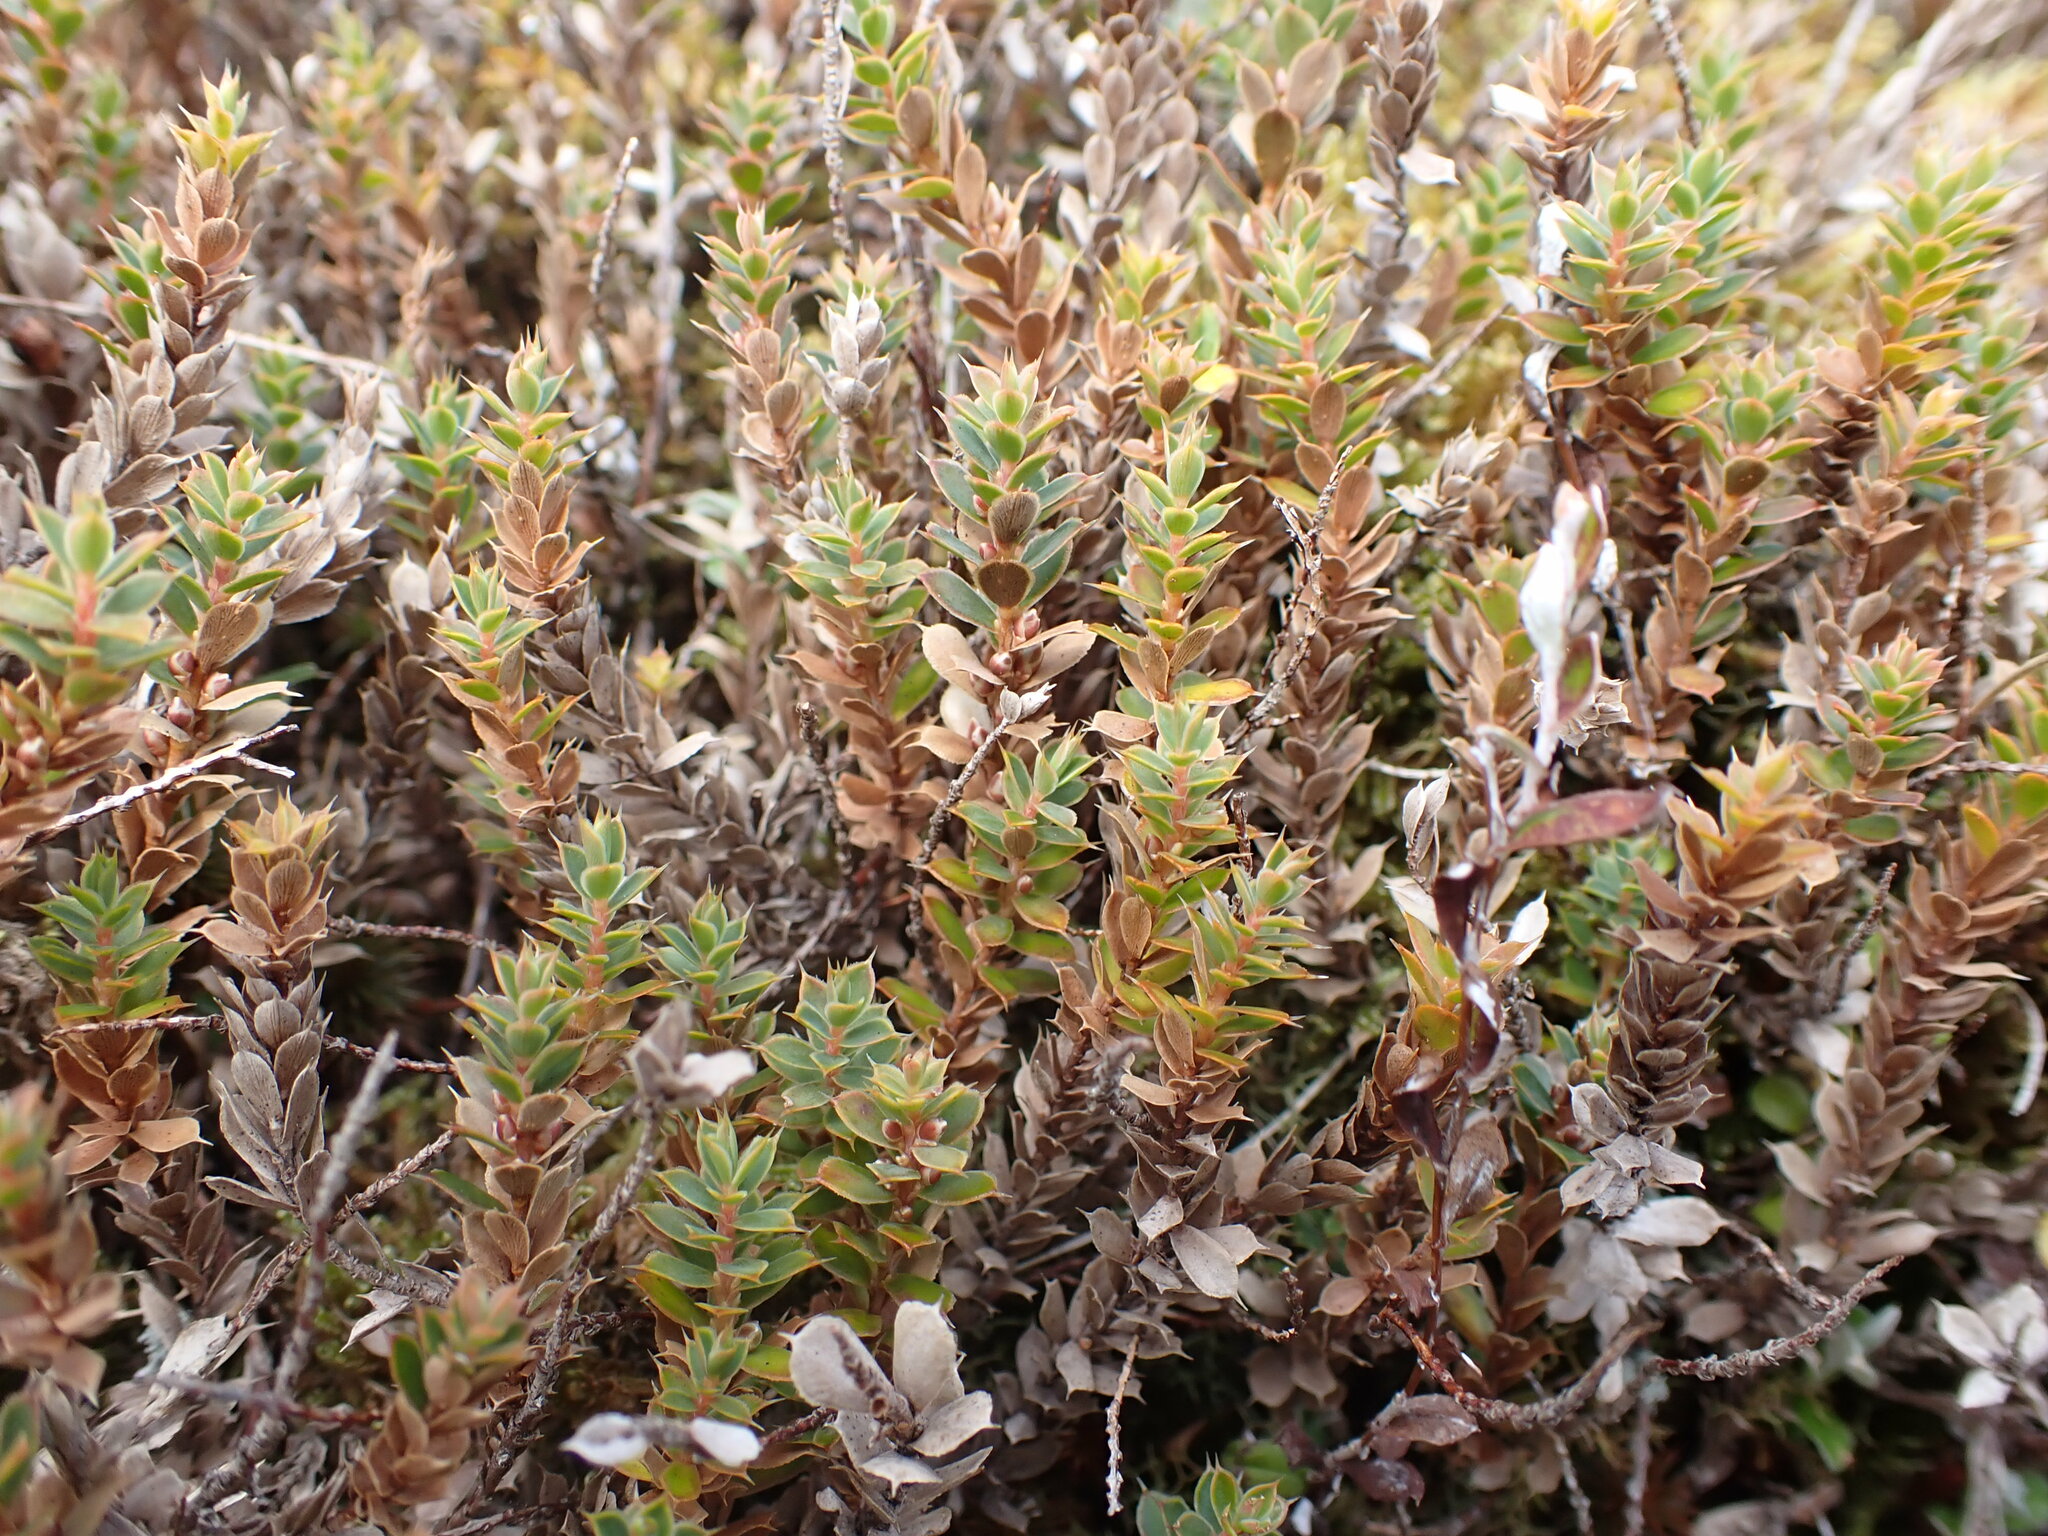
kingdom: Plantae
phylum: Tracheophyta
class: Magnoliopsida
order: Ericales
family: Ericaceae
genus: Styphelia
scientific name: Styphelia nesophila
